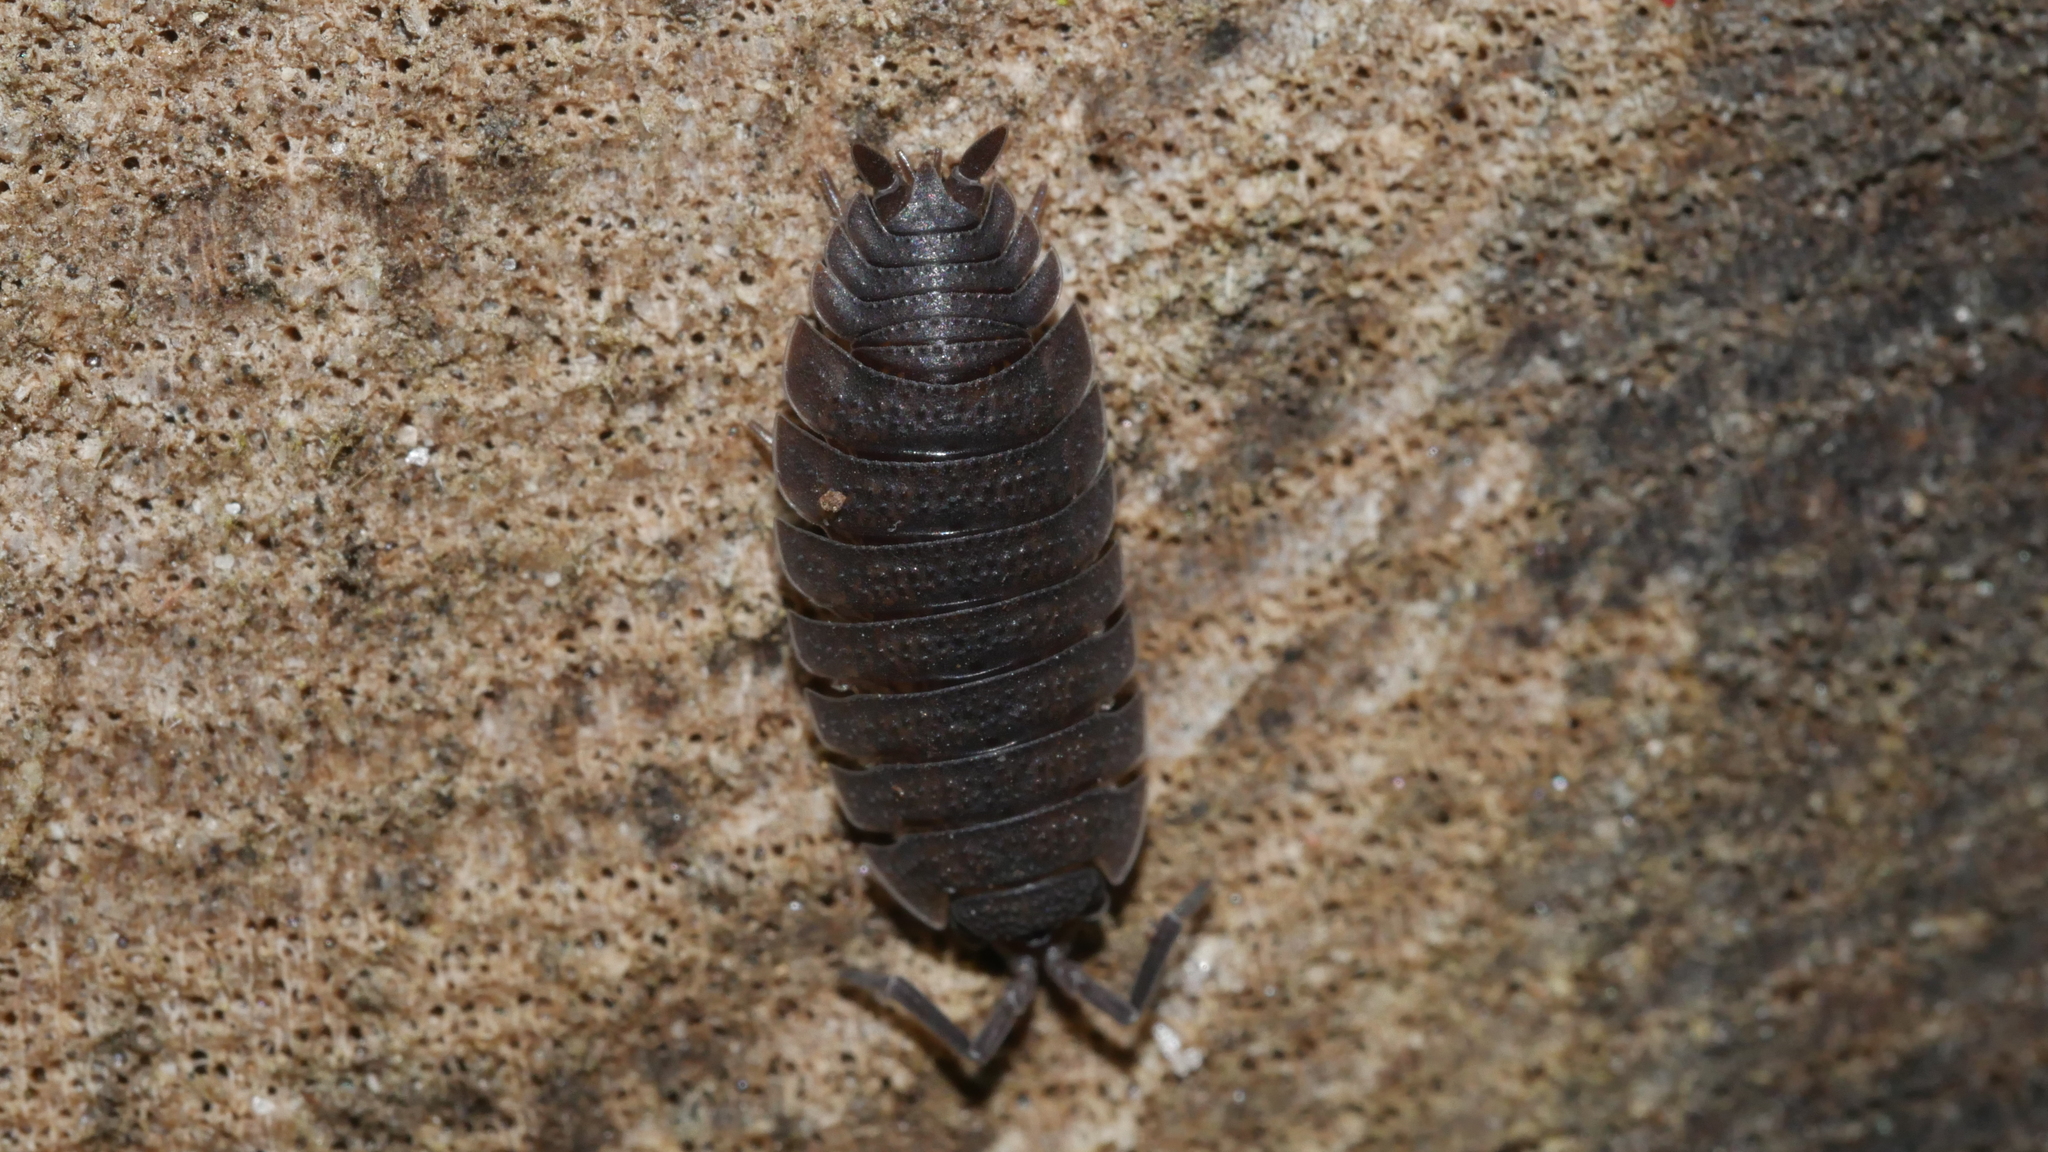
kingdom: Animalia
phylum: Arthropoda
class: Malacostraca
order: Isopoda
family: Porcellionidae
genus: Porcellio
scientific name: Porcellio scaber
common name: Common rough woodlouse
